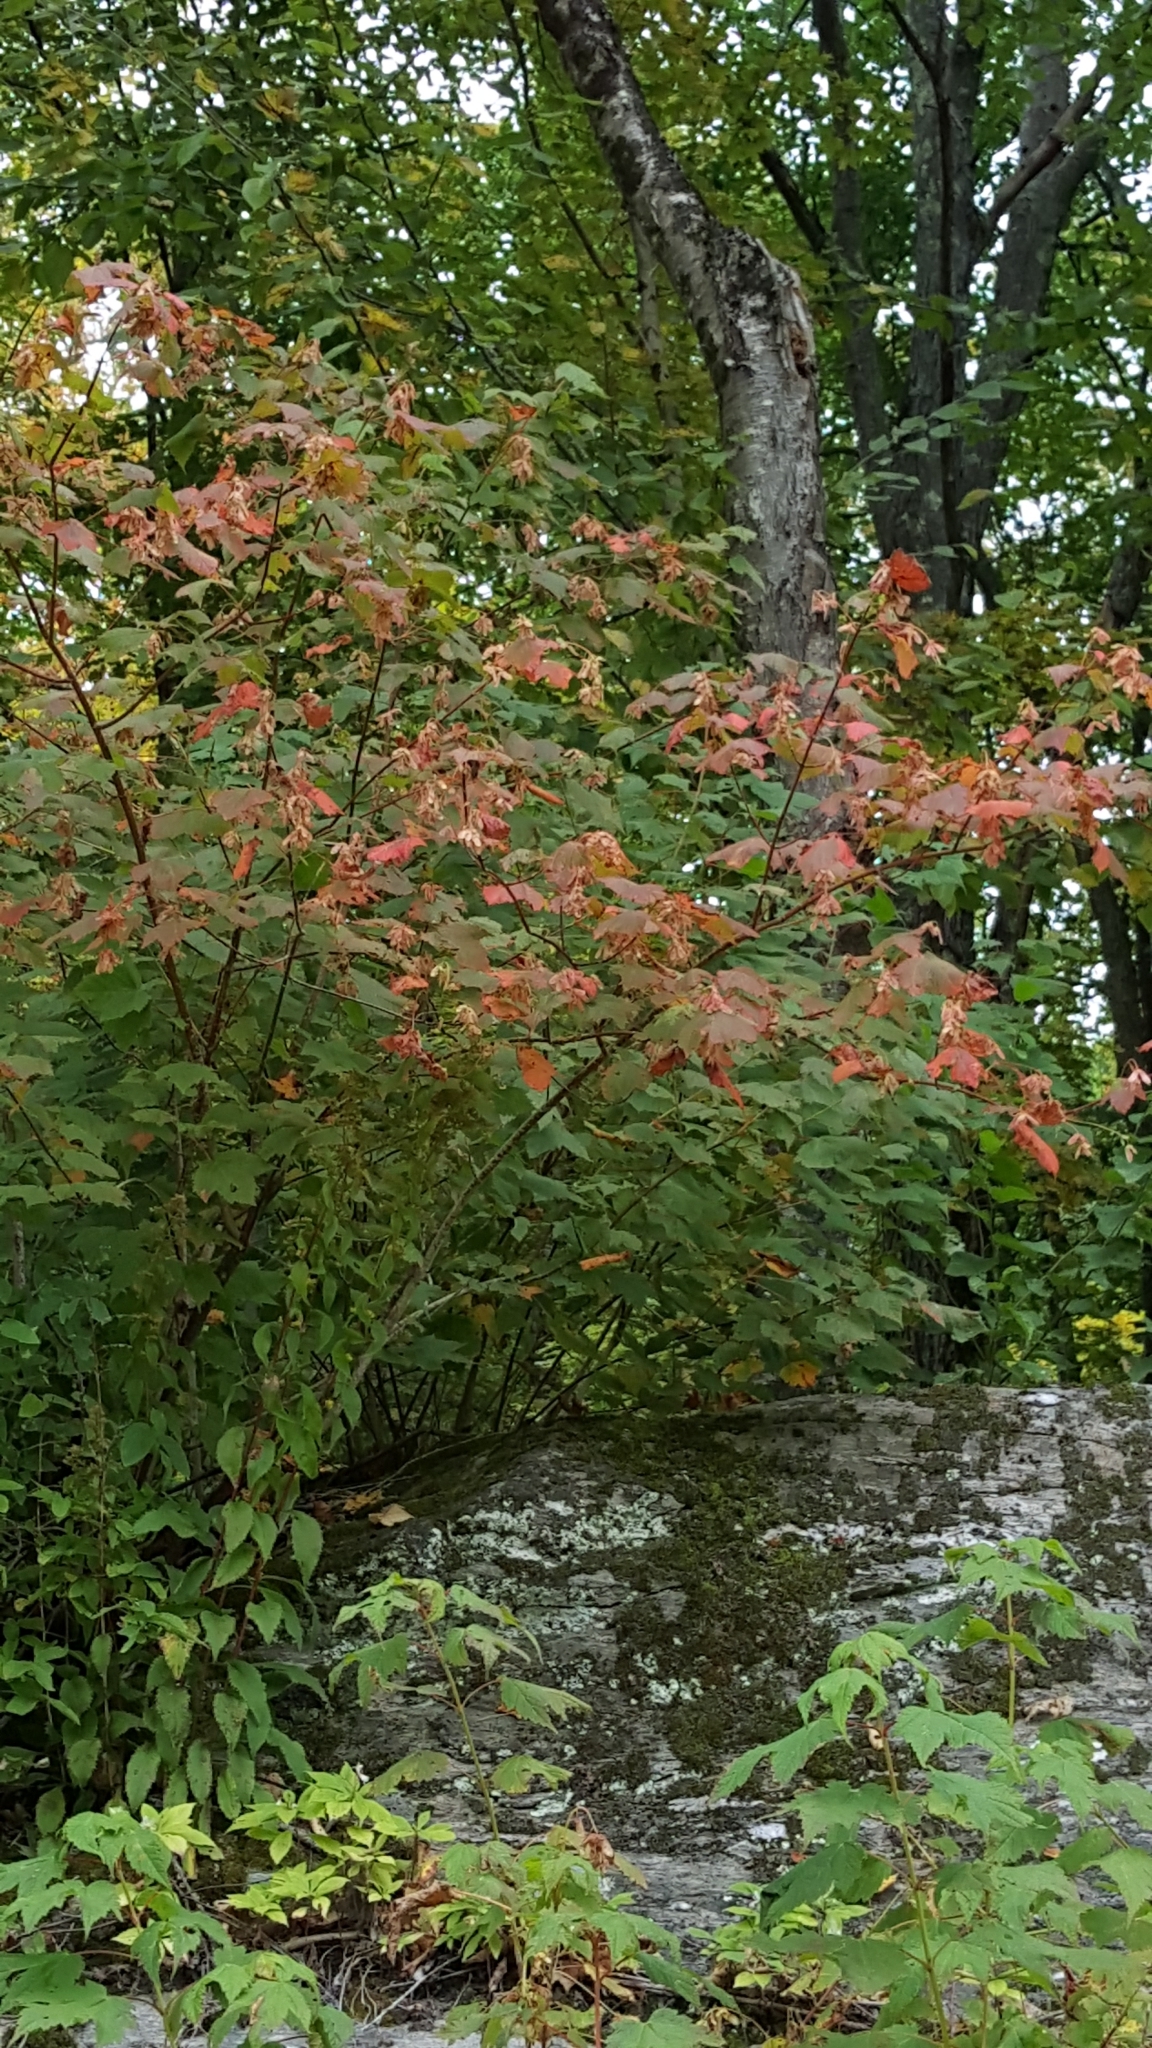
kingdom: Plantae
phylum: Tracheophyta
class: Magnoliopsida
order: Sapindales
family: Sapindaceae
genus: Acer
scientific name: Acer spicatum
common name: Mountain maple
